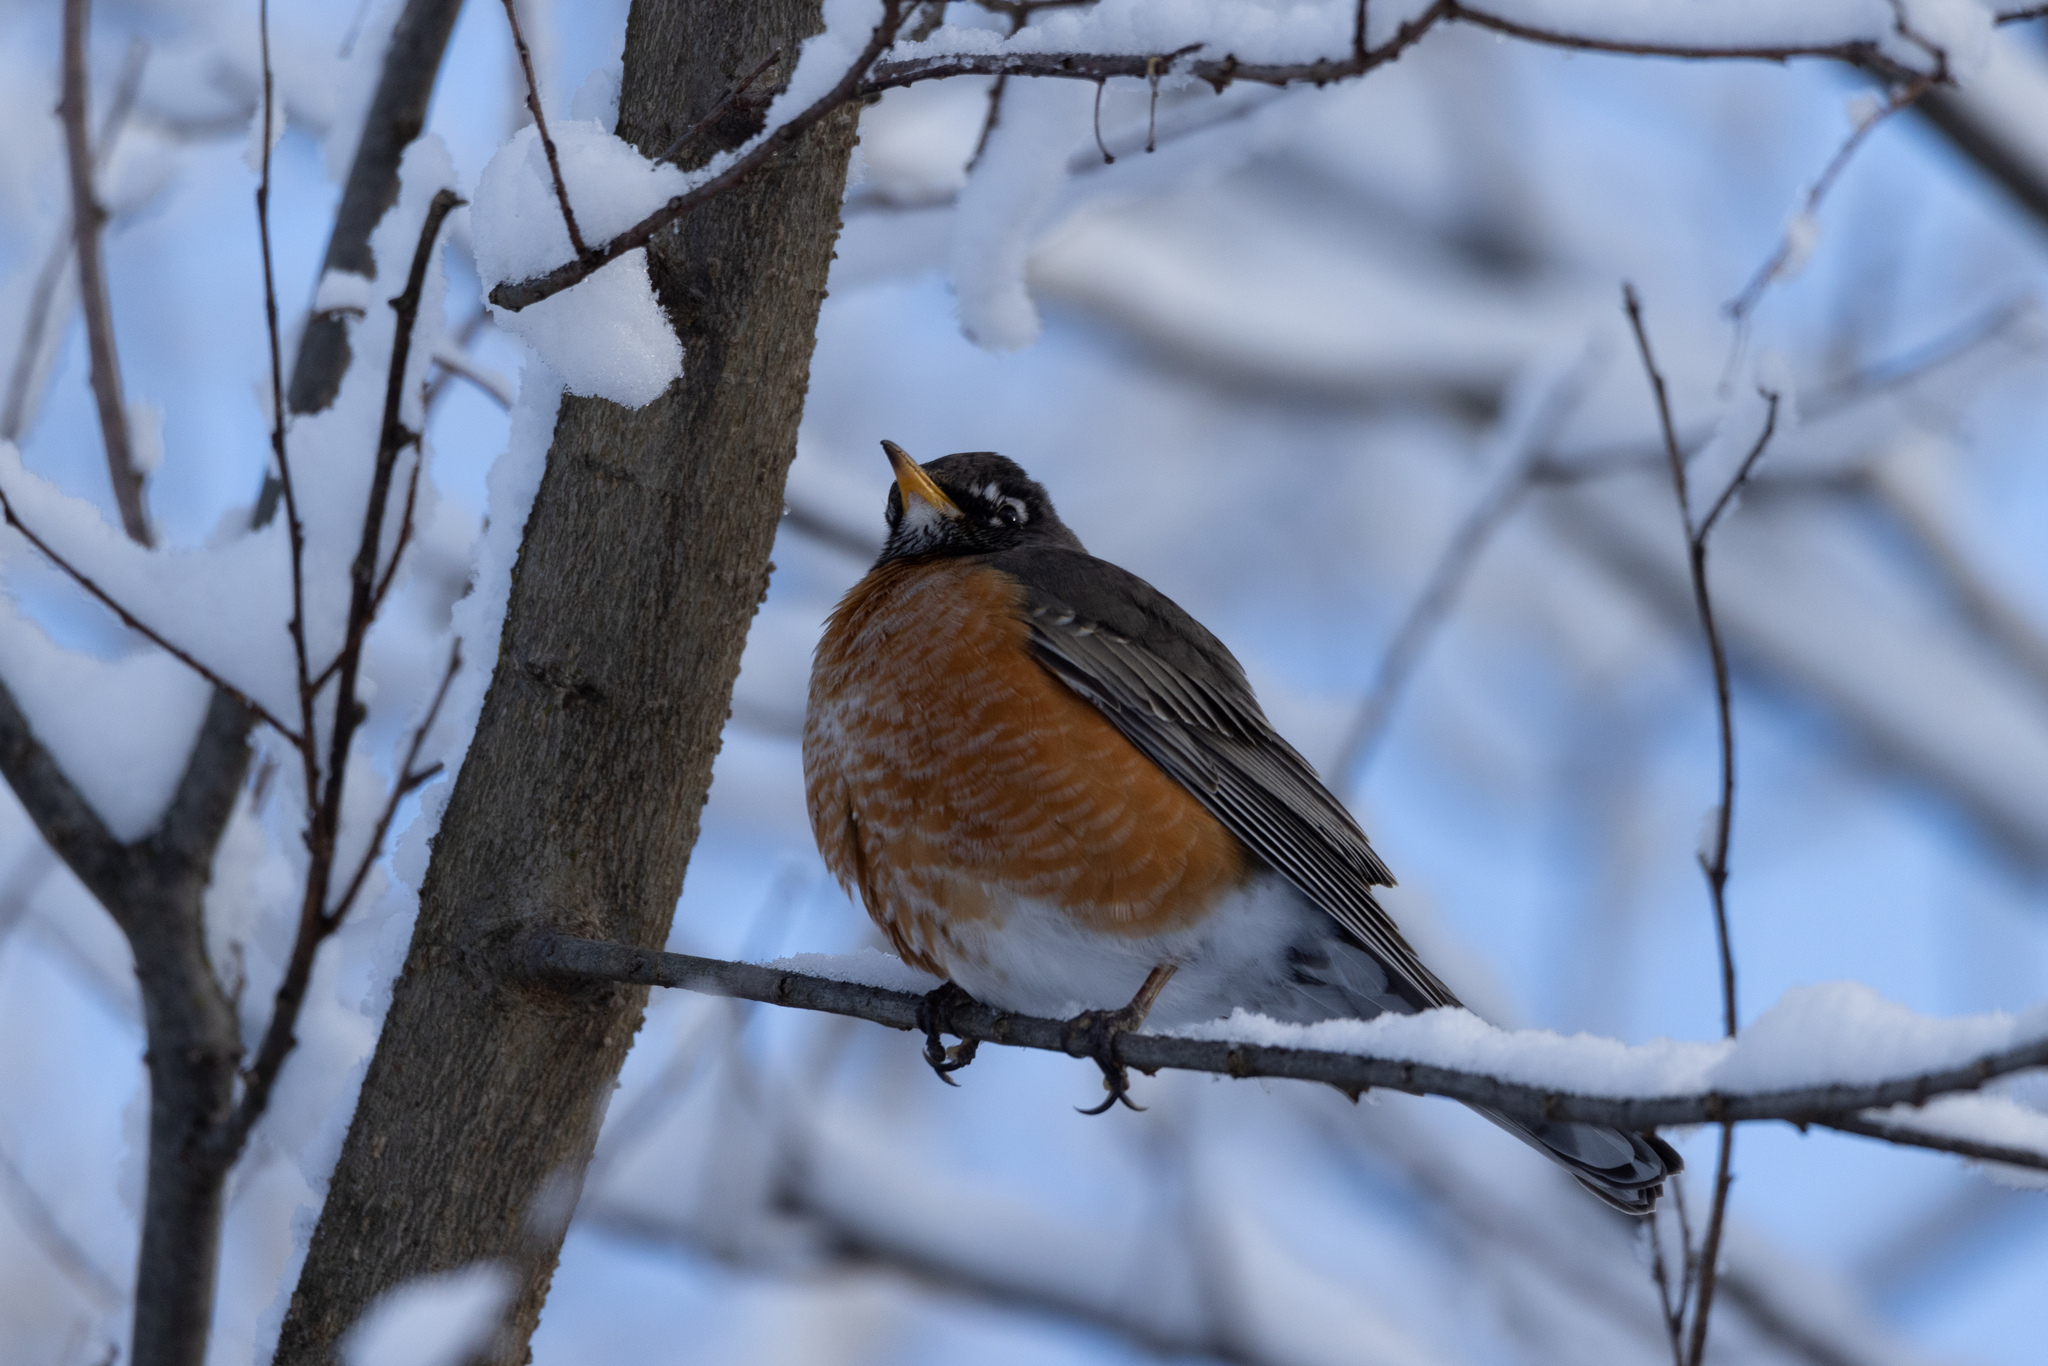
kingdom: Animalia
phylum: Chordata
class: Aves
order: Passeriformes
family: Turdidae
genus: Turdus
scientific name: Turdus migratorius
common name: American robin
